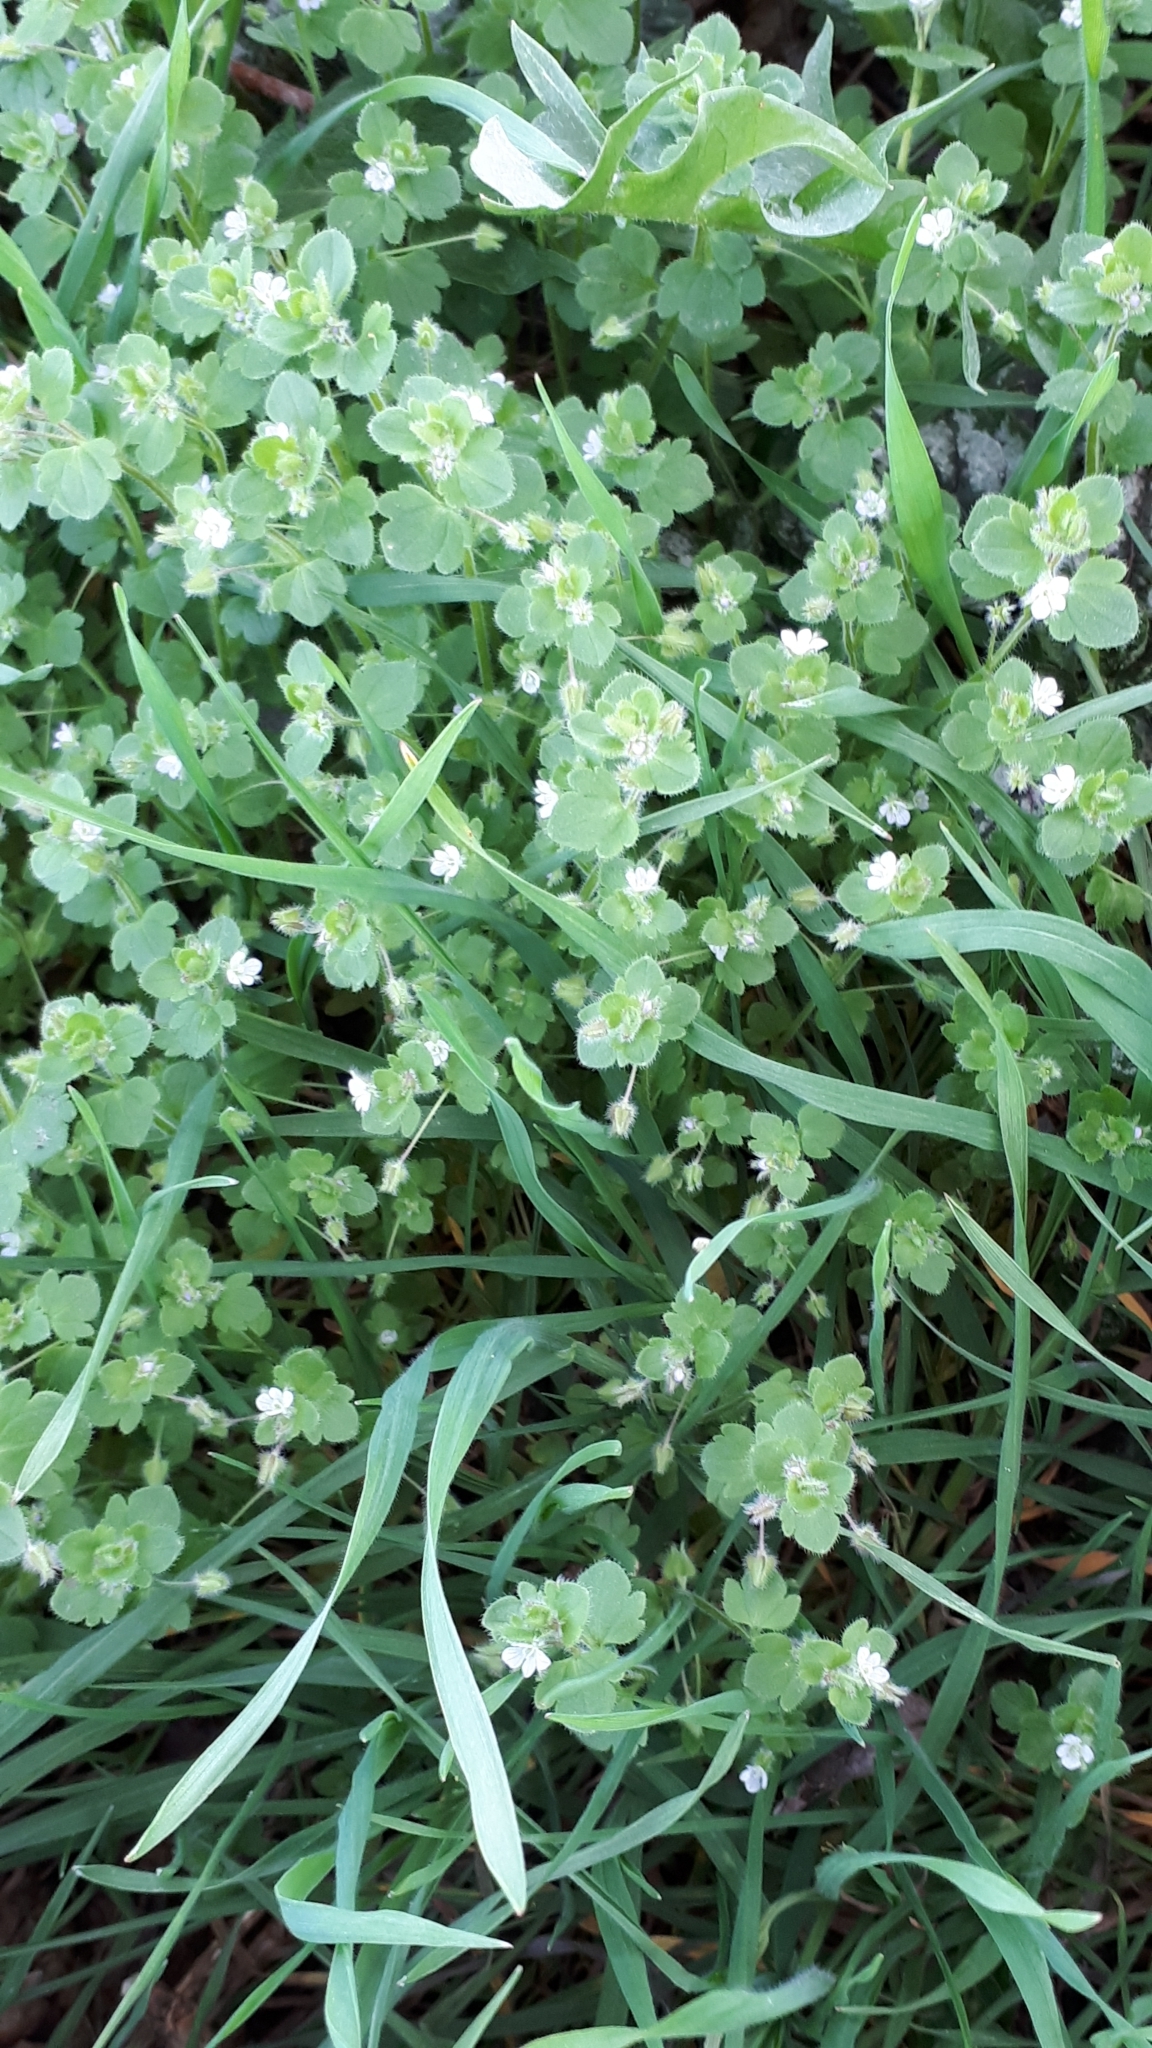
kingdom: Plantae
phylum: Tracheophyta
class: Magnoliopsida
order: Lamiales
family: Plantaginaceae
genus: Veronica
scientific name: Veronica sublobata
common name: False ivy-leaved speedwell
